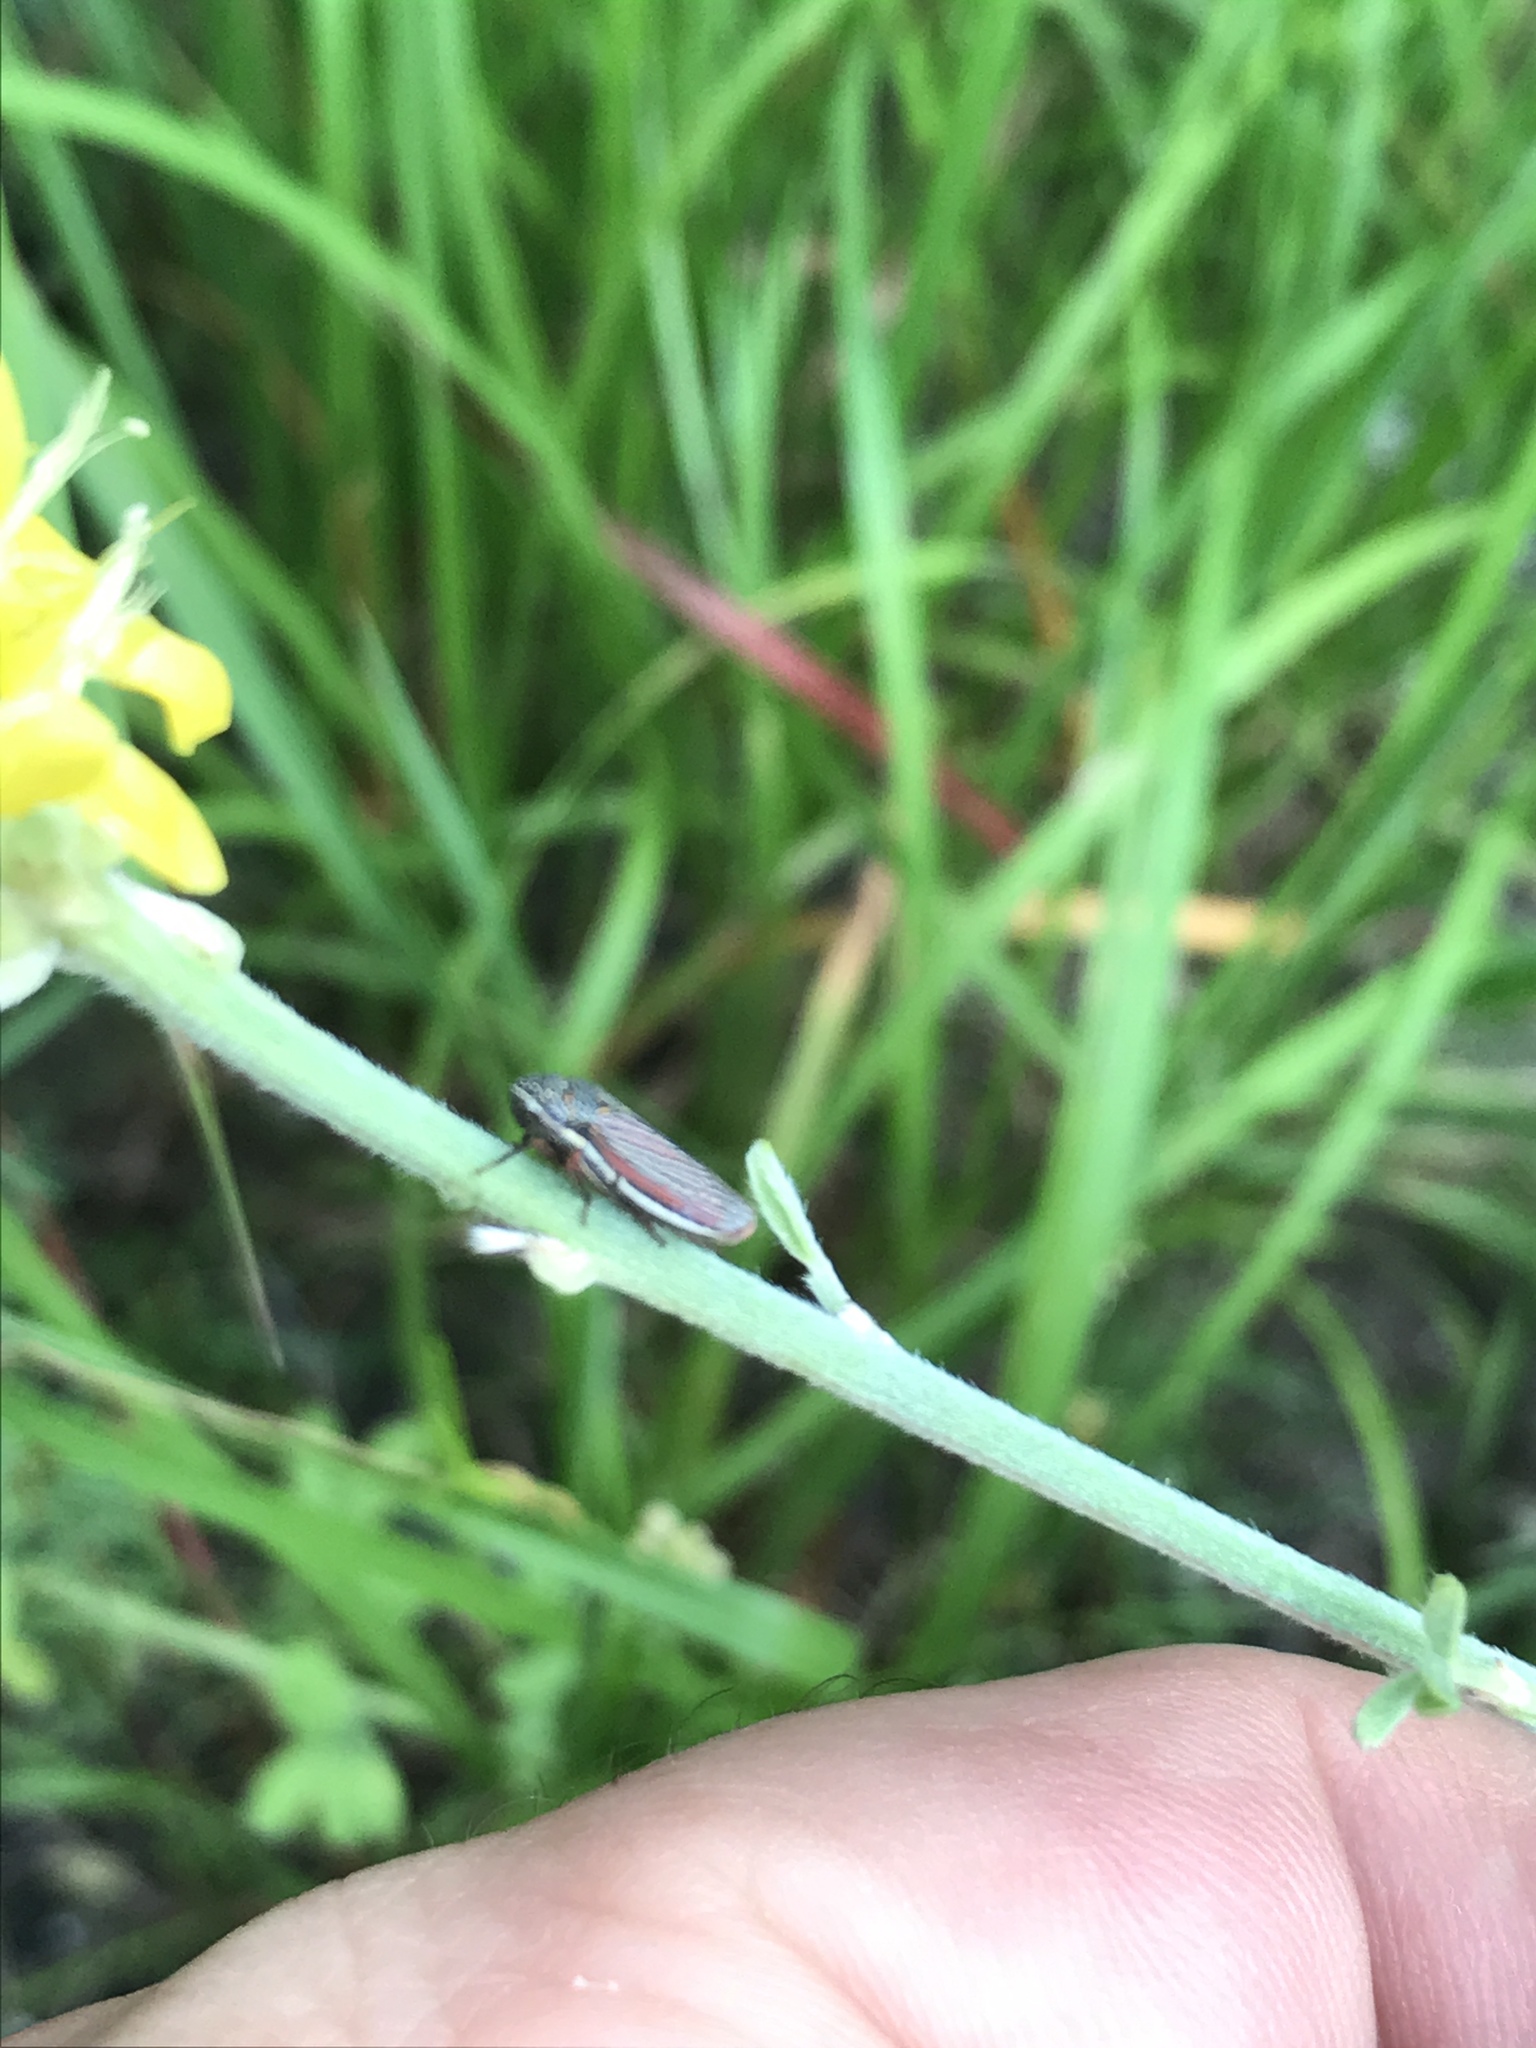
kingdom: Animalia
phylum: Arthropoda
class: Insecta
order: Hemiptera
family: Cicadellidae
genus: Cuerna
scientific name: Cuerna costalis
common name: Lateral-lined sharpshooter
